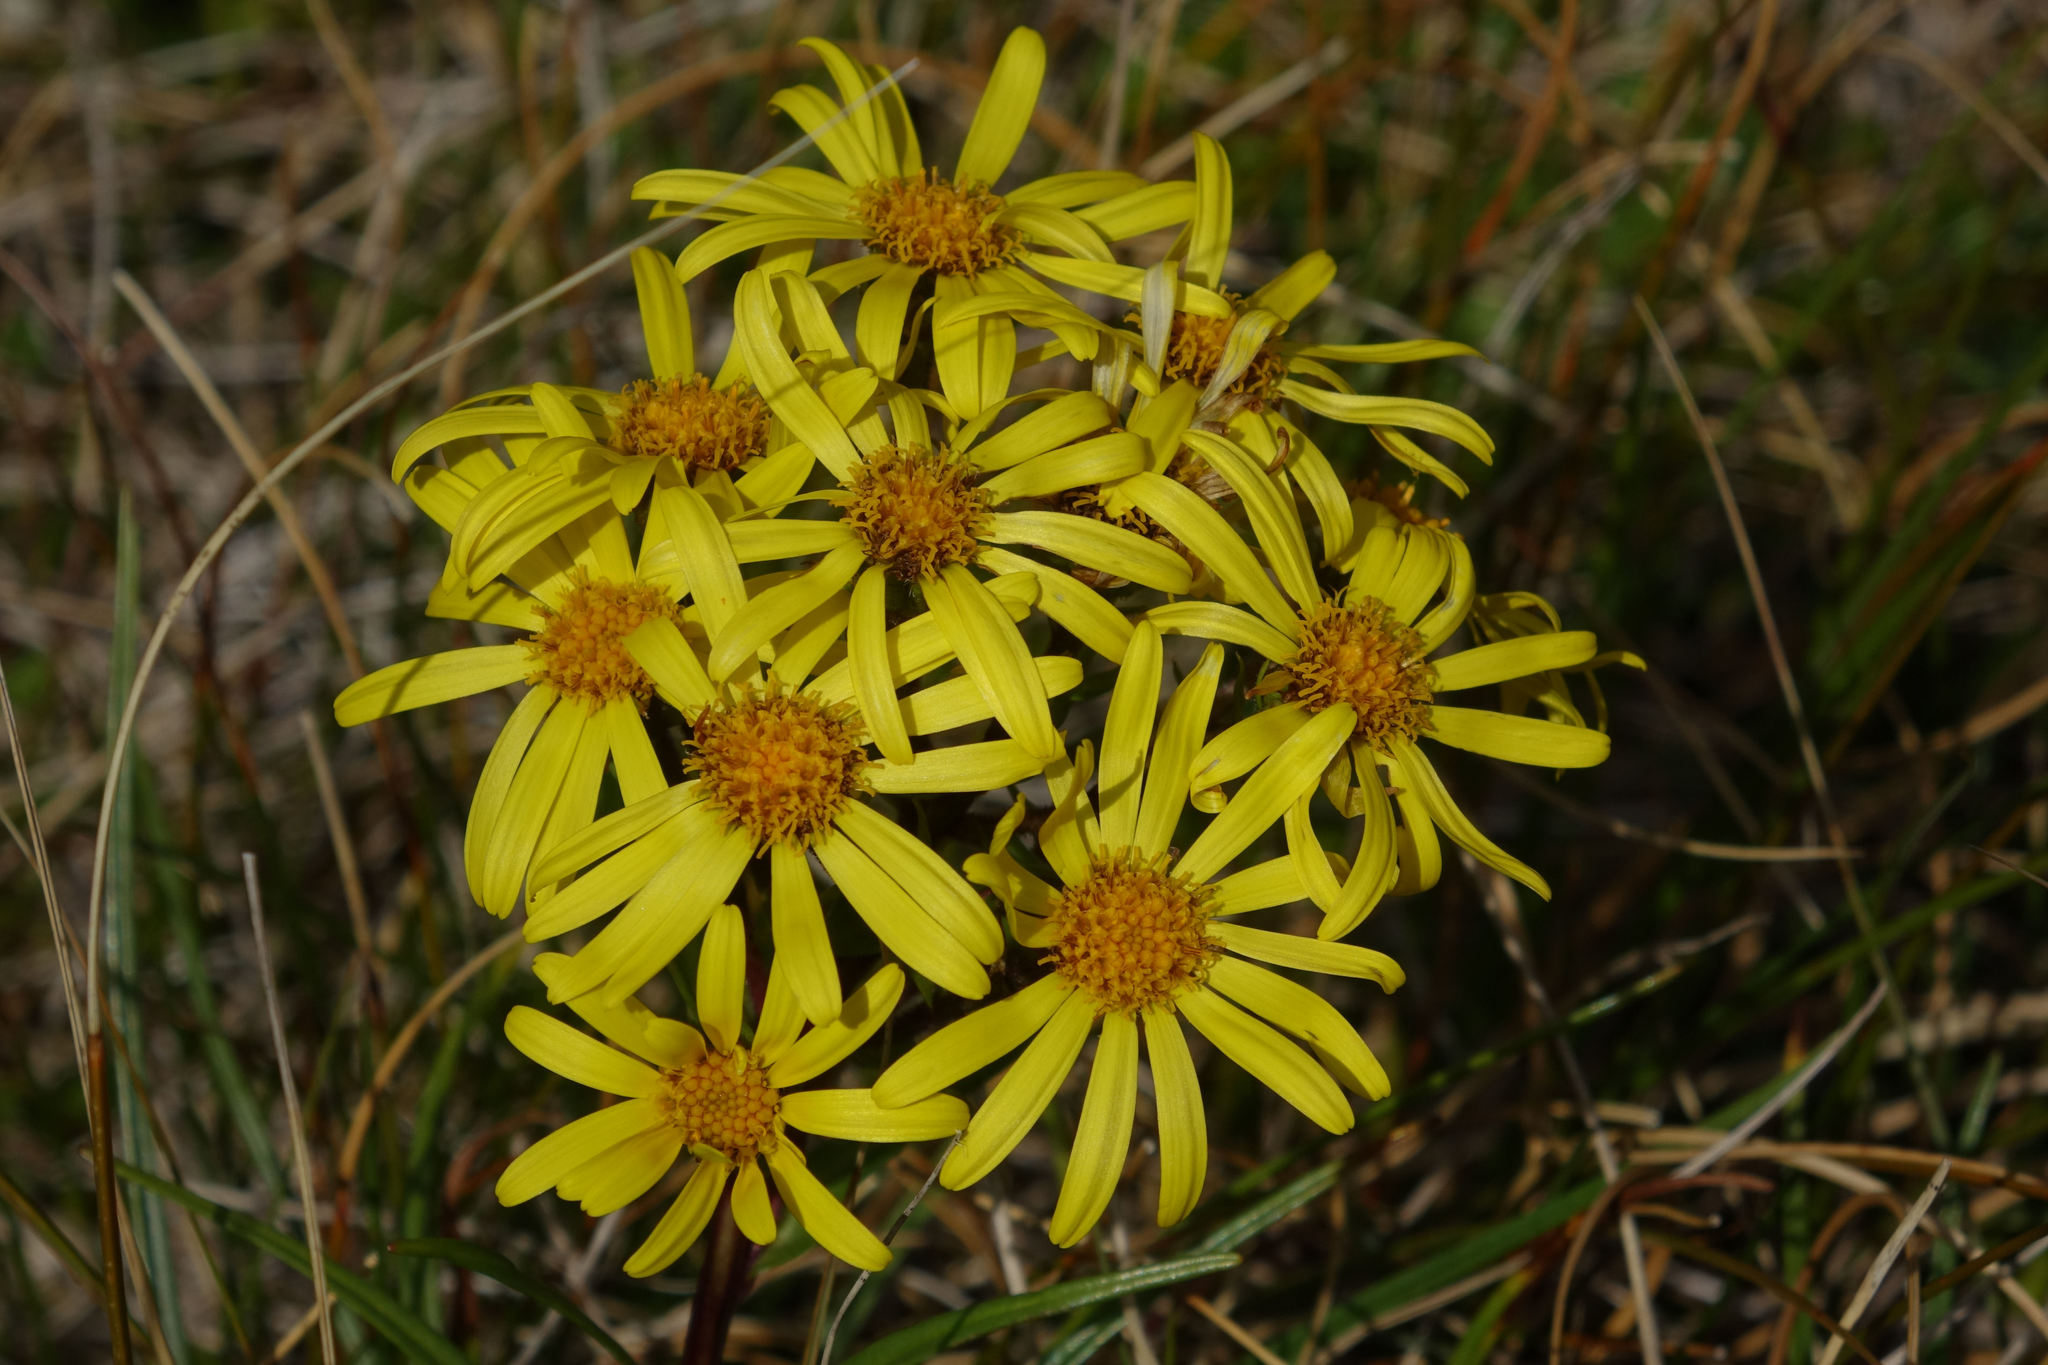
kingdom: Plantae
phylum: Tracheophyta
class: Magnoliopsida
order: Asterales
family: Asteraceae
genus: Dolichoglottis
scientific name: Dolichoglottis lyallii
